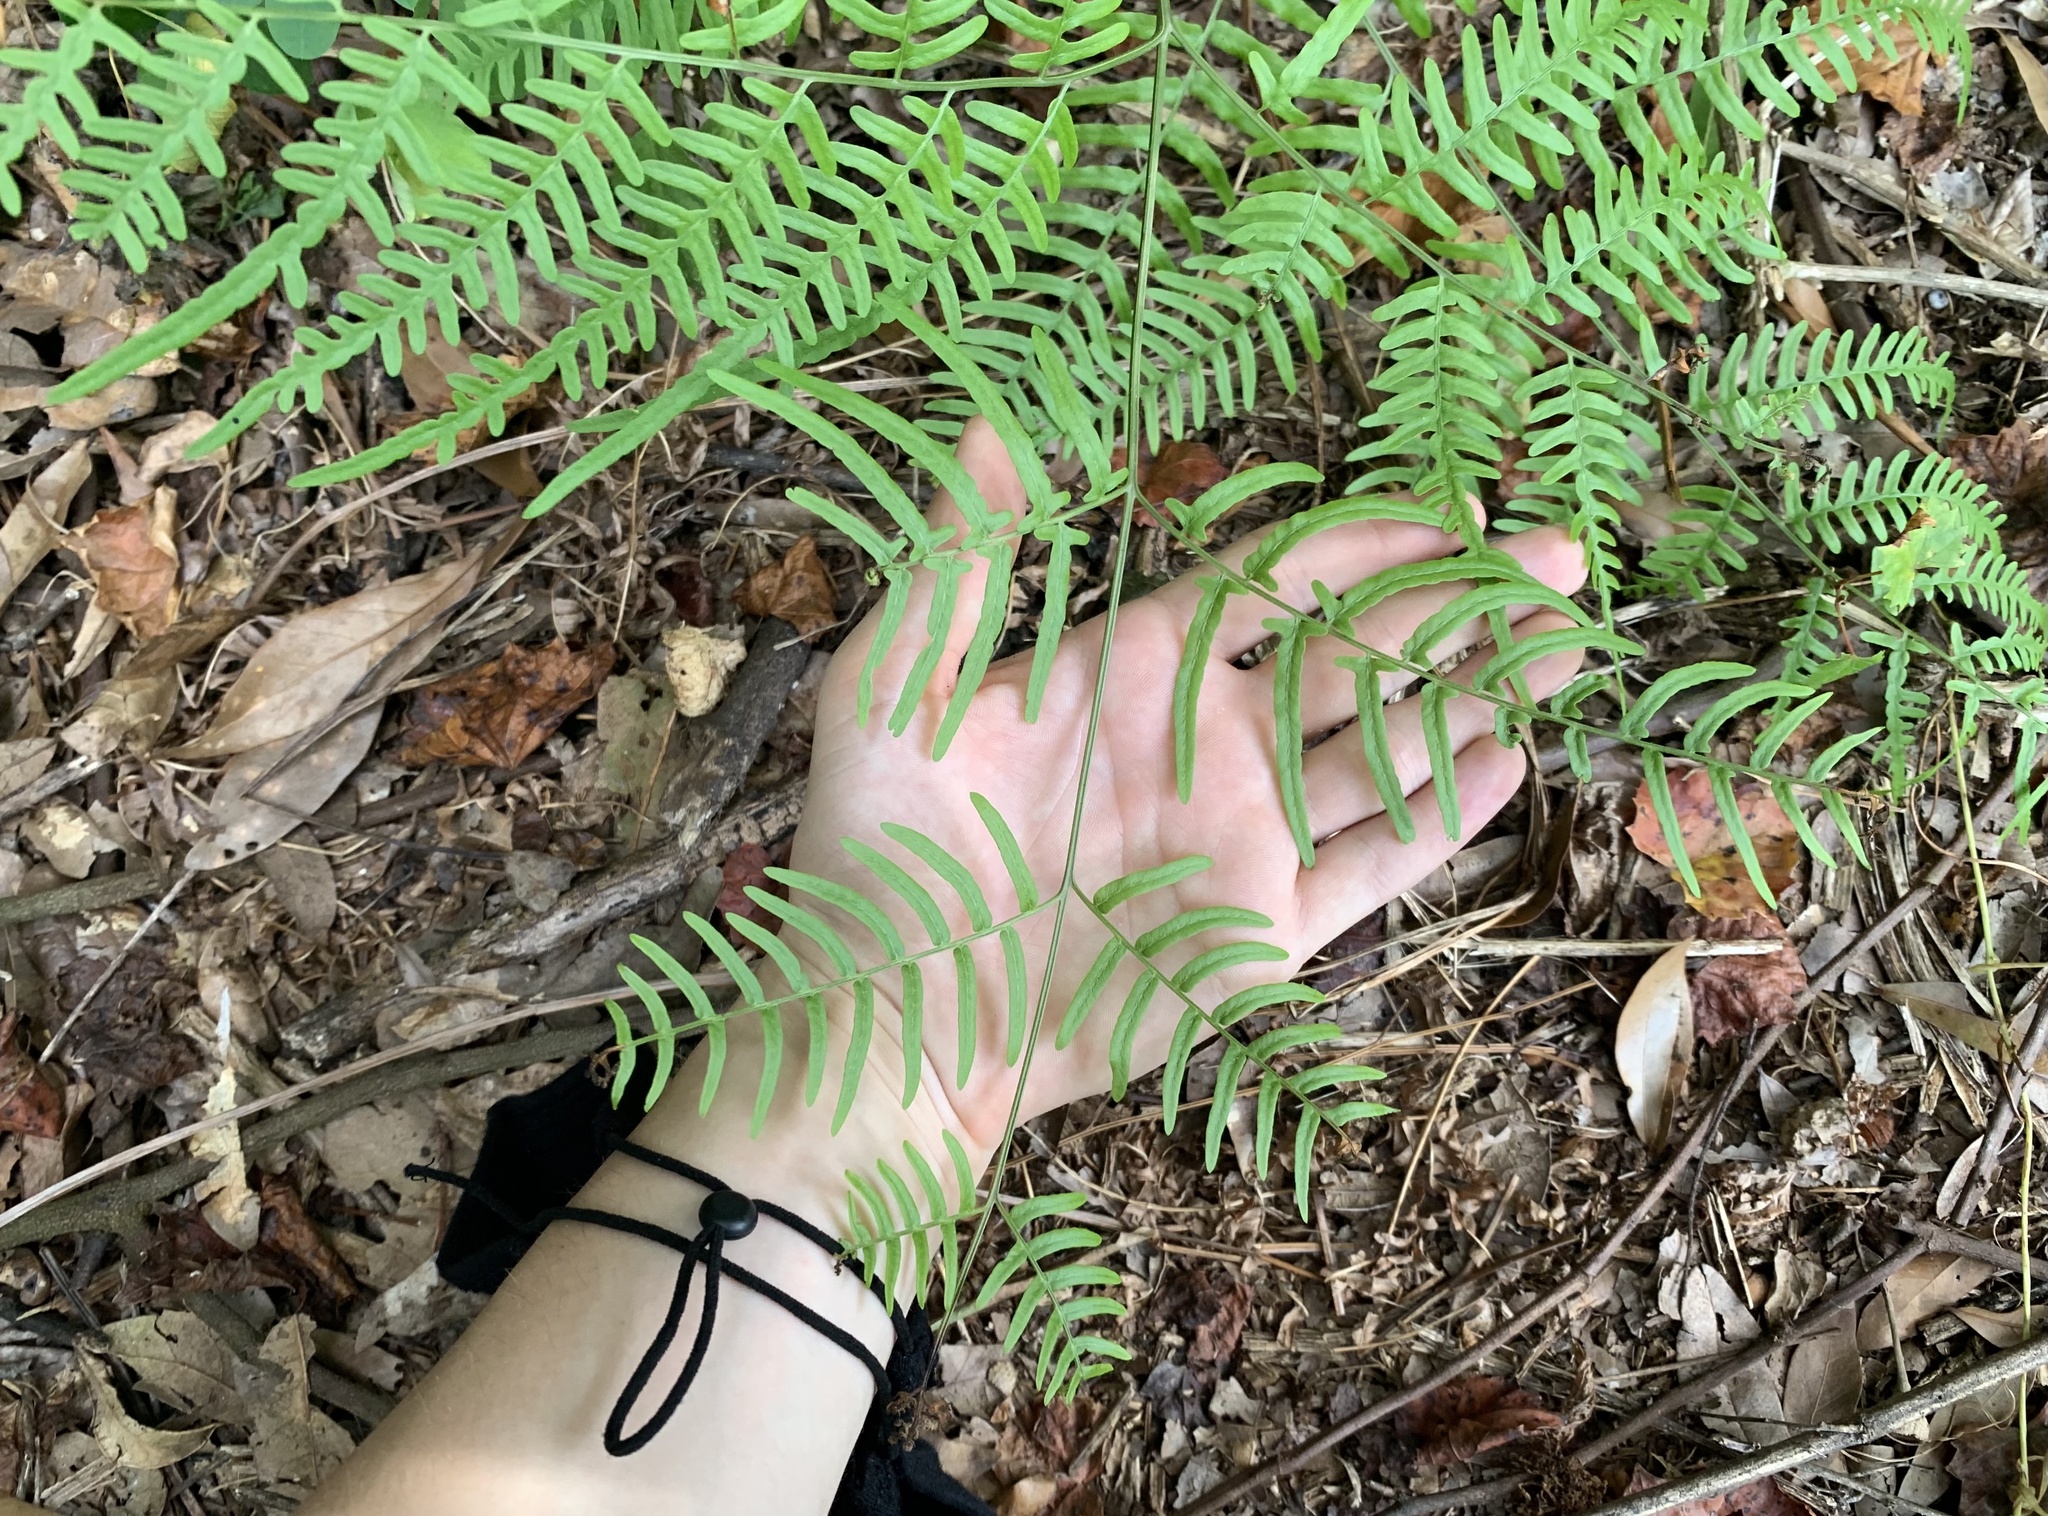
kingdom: Plantae
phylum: Tracheophyta
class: Polypodiopsida
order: Polypodiales
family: Dennstaedtiaceae
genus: Pteridium
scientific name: Pteridium
